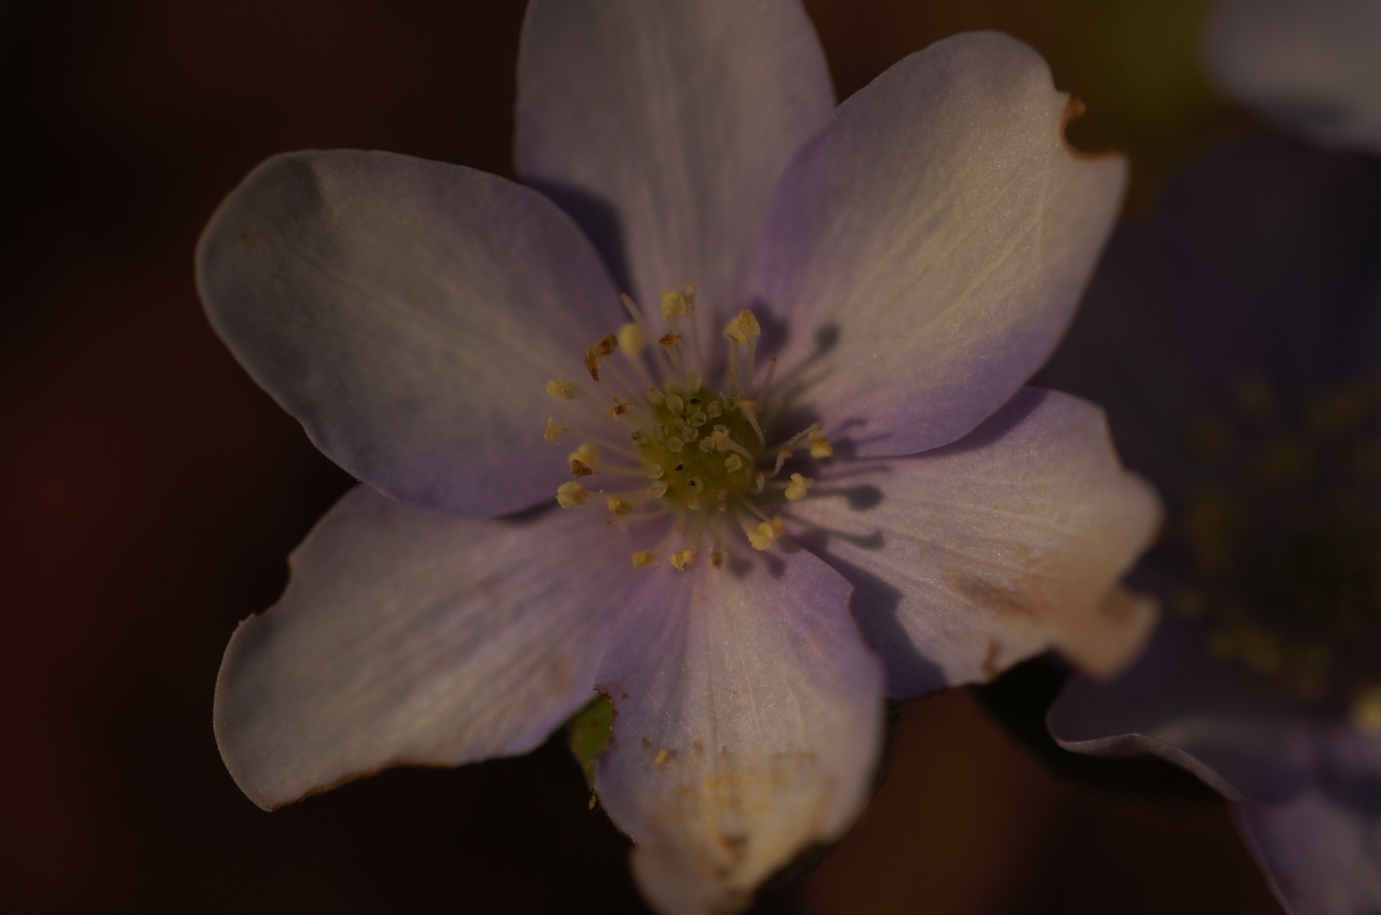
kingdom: Plantae
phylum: Tracheophyta
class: Magnoliopsida
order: Ranunculales
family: Ranunculaceae
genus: Hepatica
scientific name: Hepatica nobilis
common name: Liverleaf
